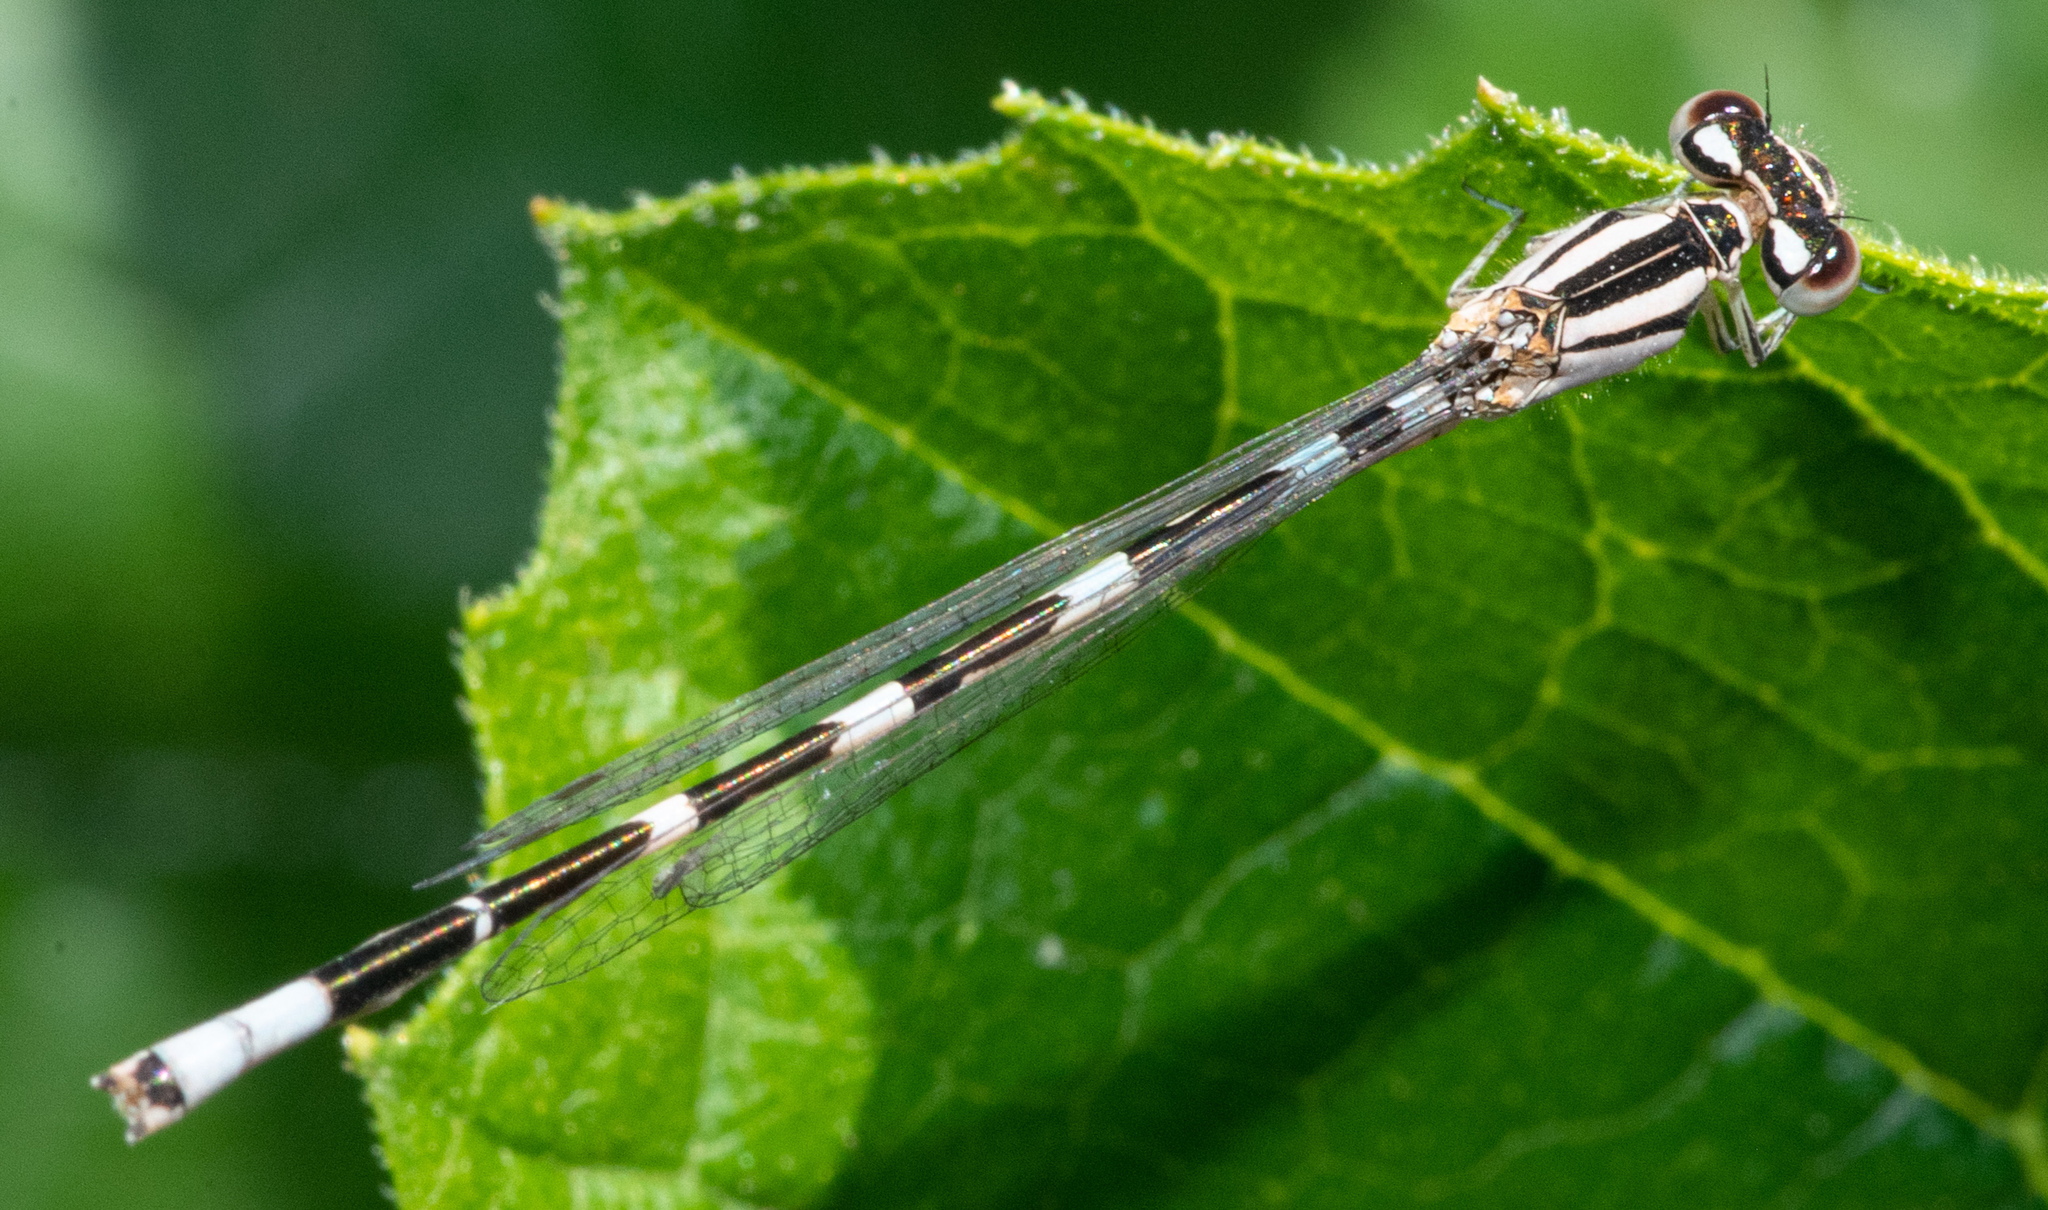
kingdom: Animalia
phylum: Arthropoda
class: Insecta
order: Odonata
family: Coenagrionidae
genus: Enallagma
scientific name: Enallagma carunculatum
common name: Tule bluet
